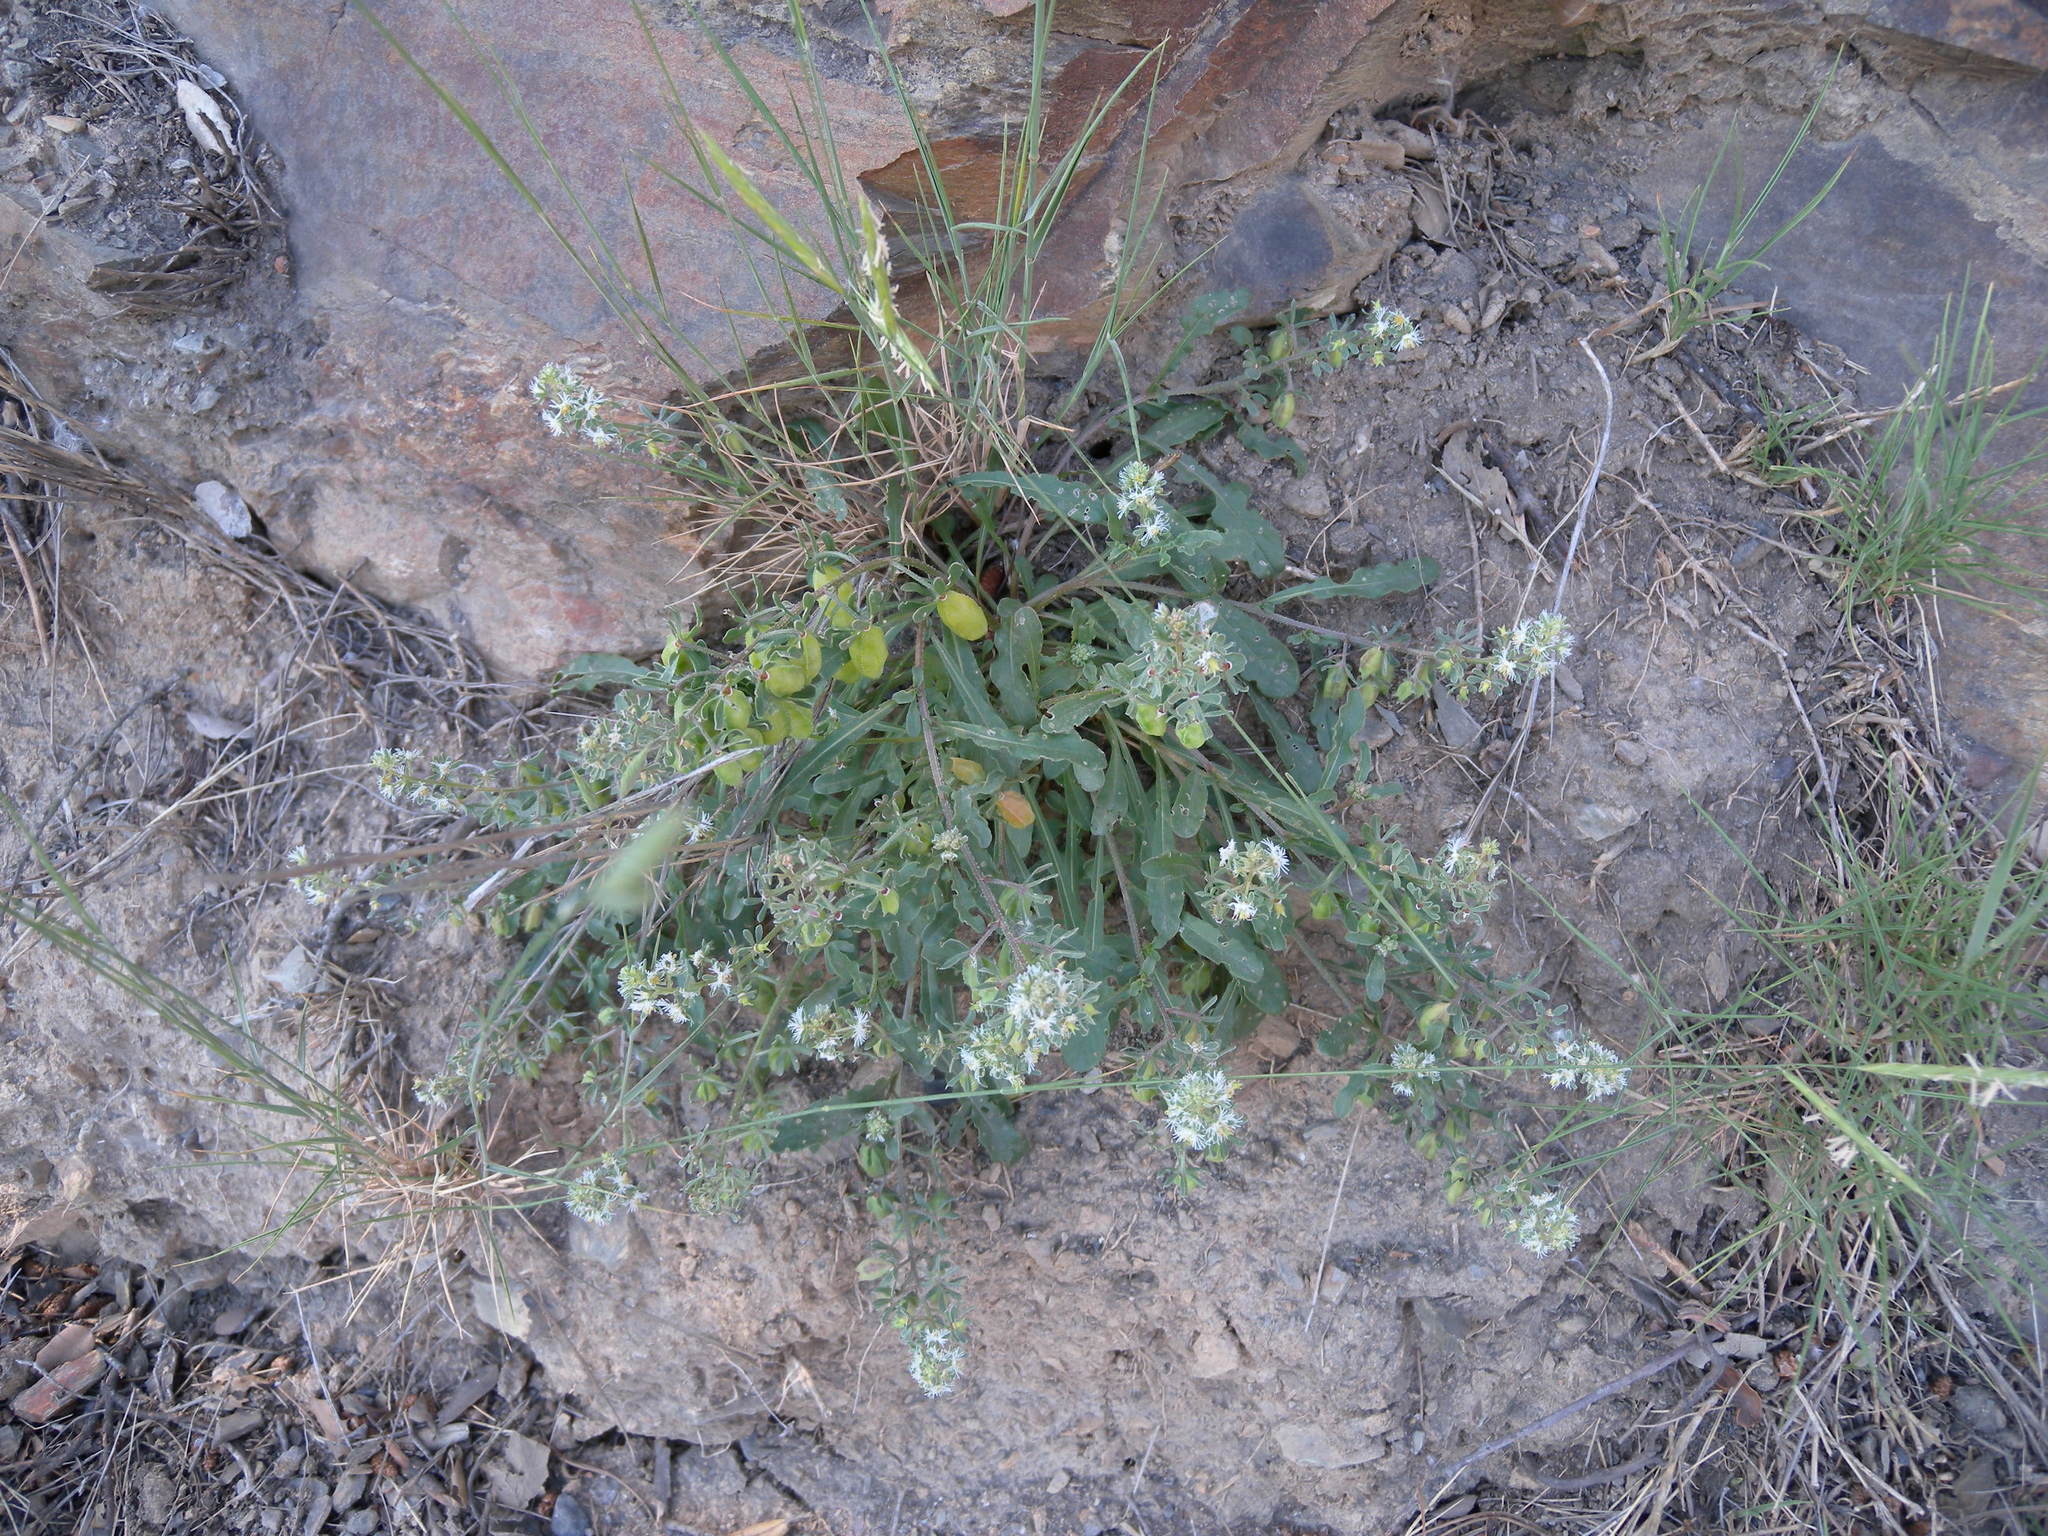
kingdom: Plantae
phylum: Tracheophyta
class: Magnoliopsida
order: Brassicales
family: Resedaceae
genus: Reseda
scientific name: Reseda phyteuma
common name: Corn mignonette
